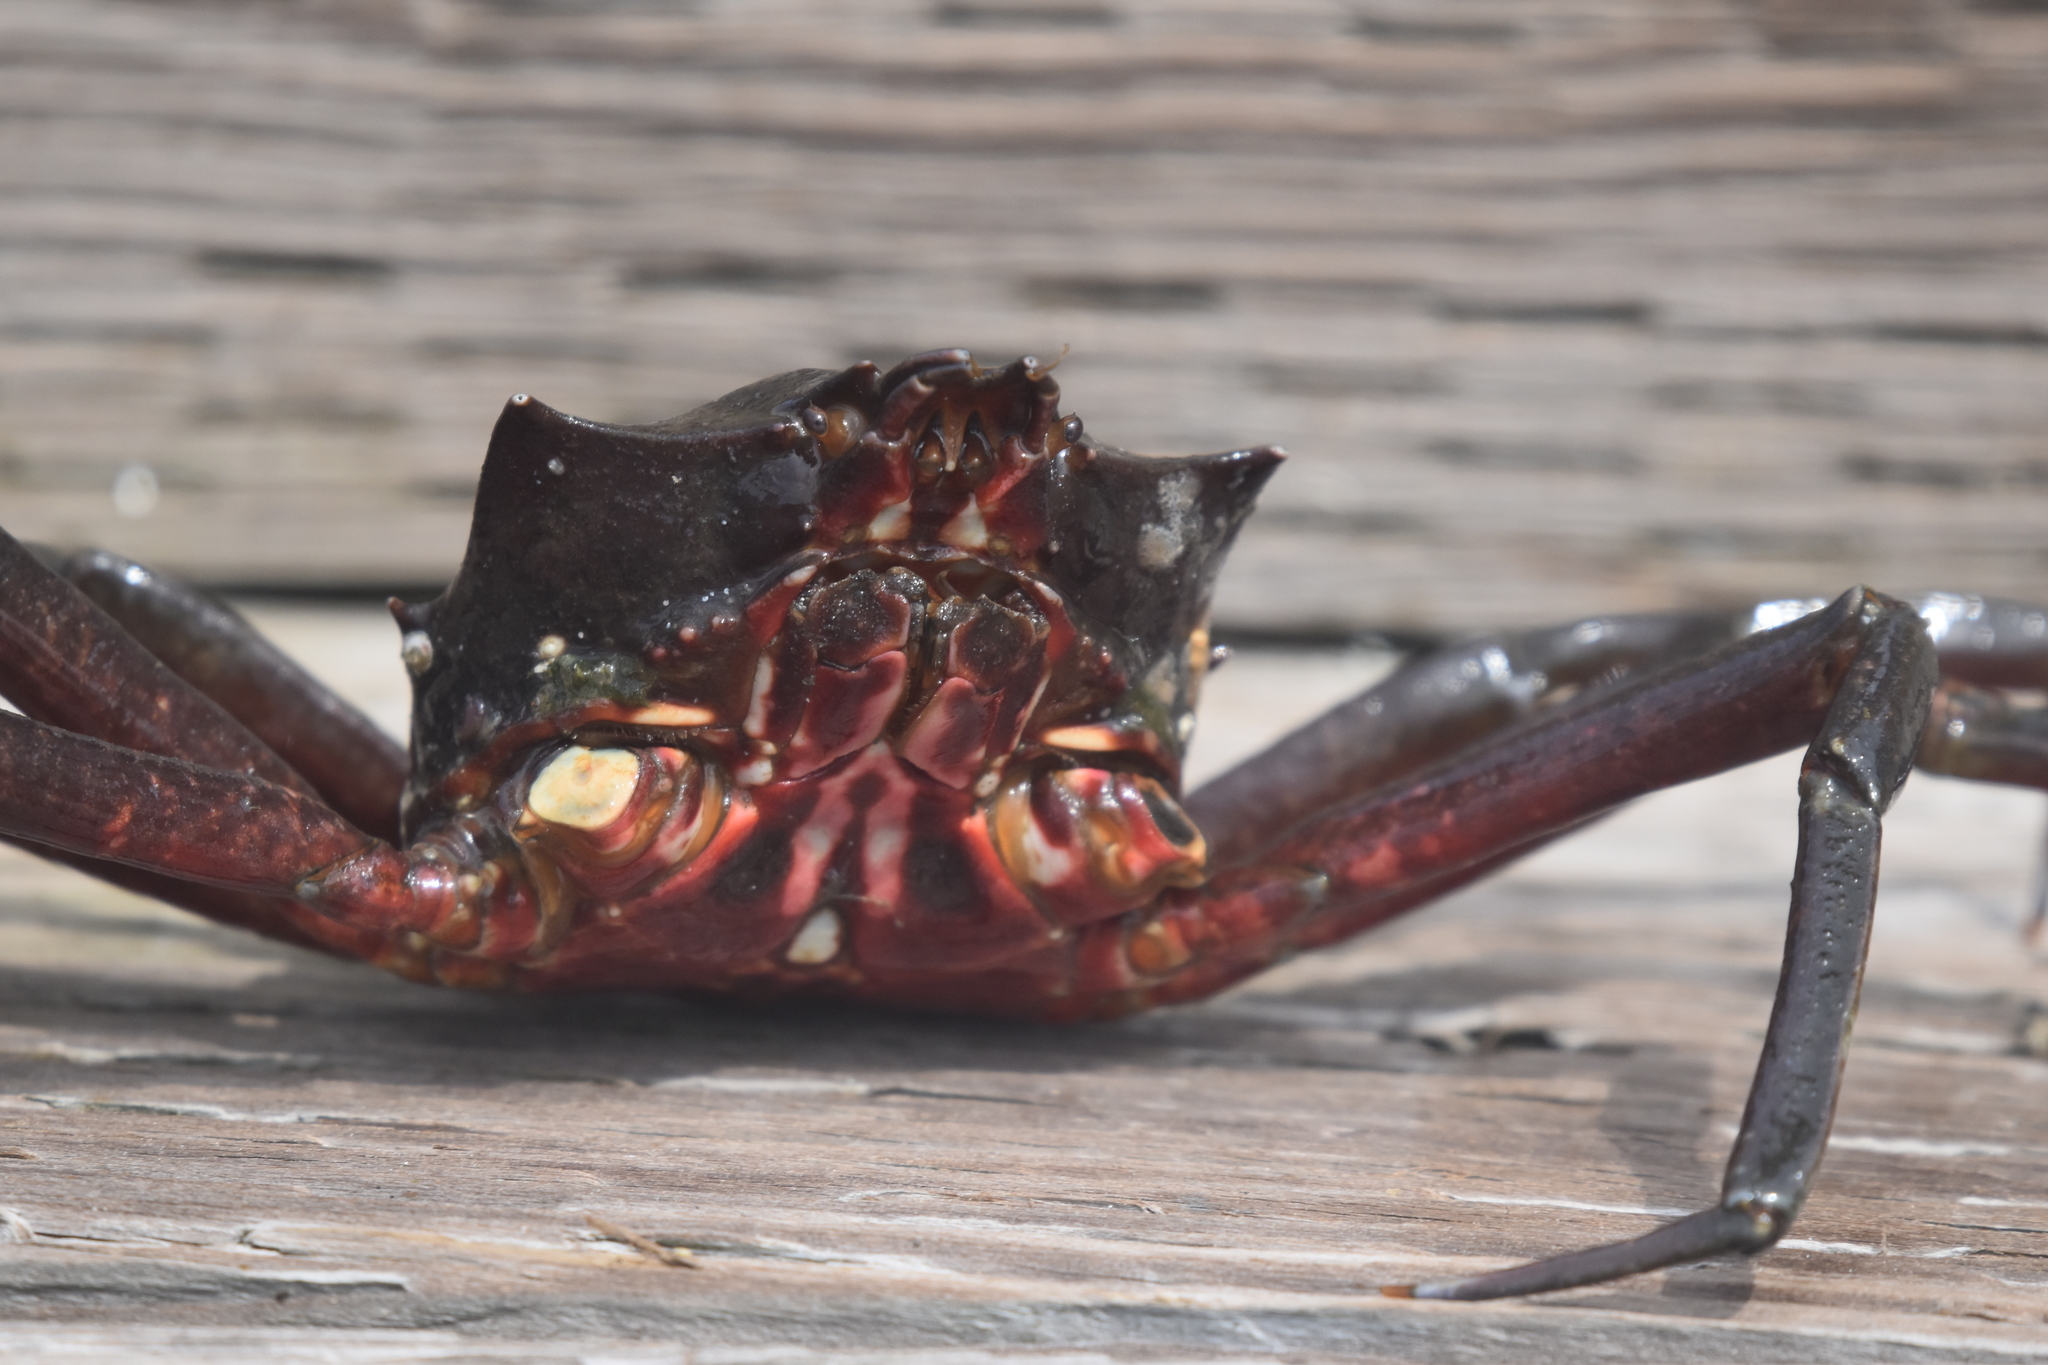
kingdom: Animalia
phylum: Arthropoda
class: Malacostraca
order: Decapoda
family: Epialtidae
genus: Pugettia
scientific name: Pugettia producta
